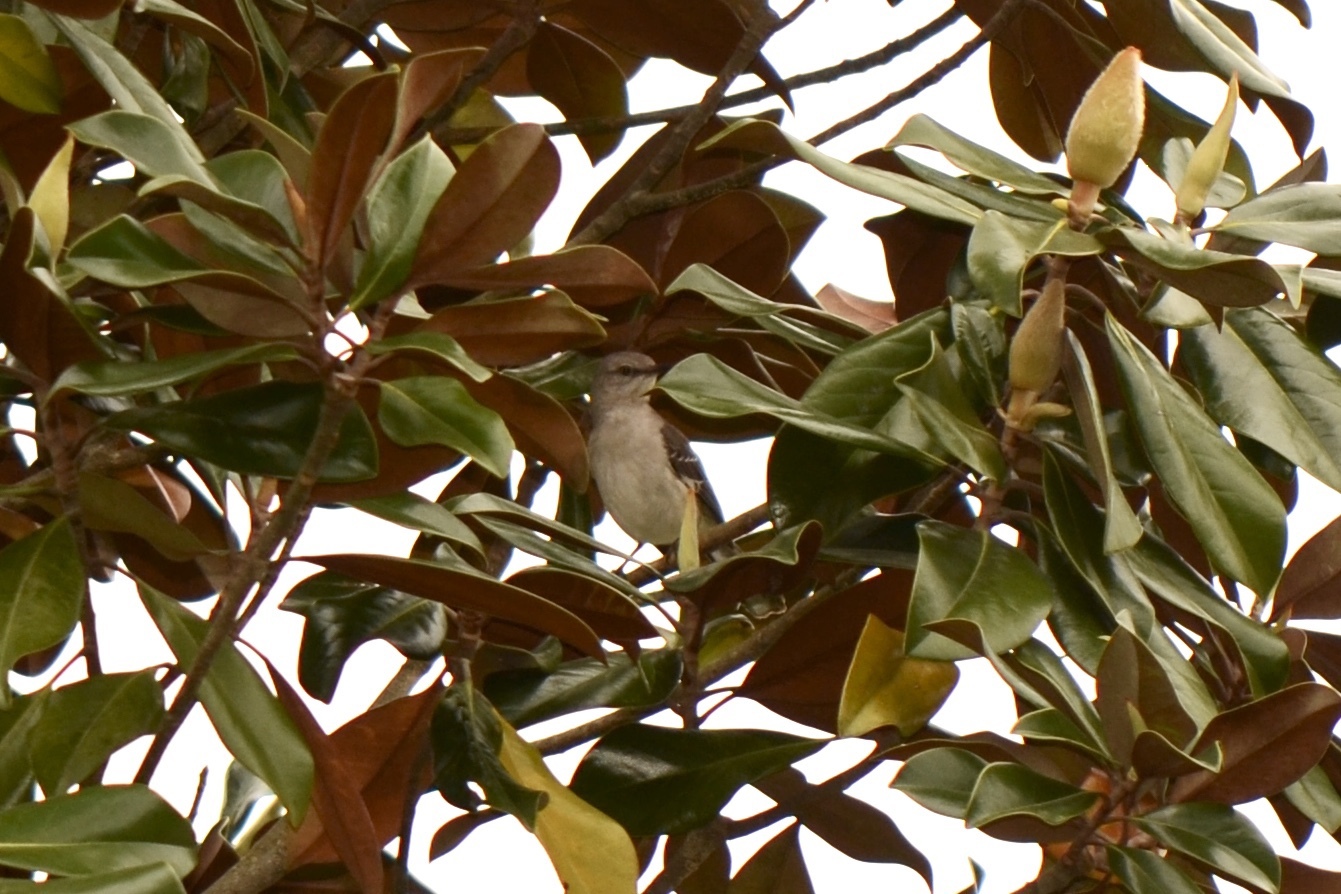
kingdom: Animalia
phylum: Chordata
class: Aves
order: Passeriformes
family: Mimidae
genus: Mimus
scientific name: Mimus polyglottos
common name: Northern mockingbird
